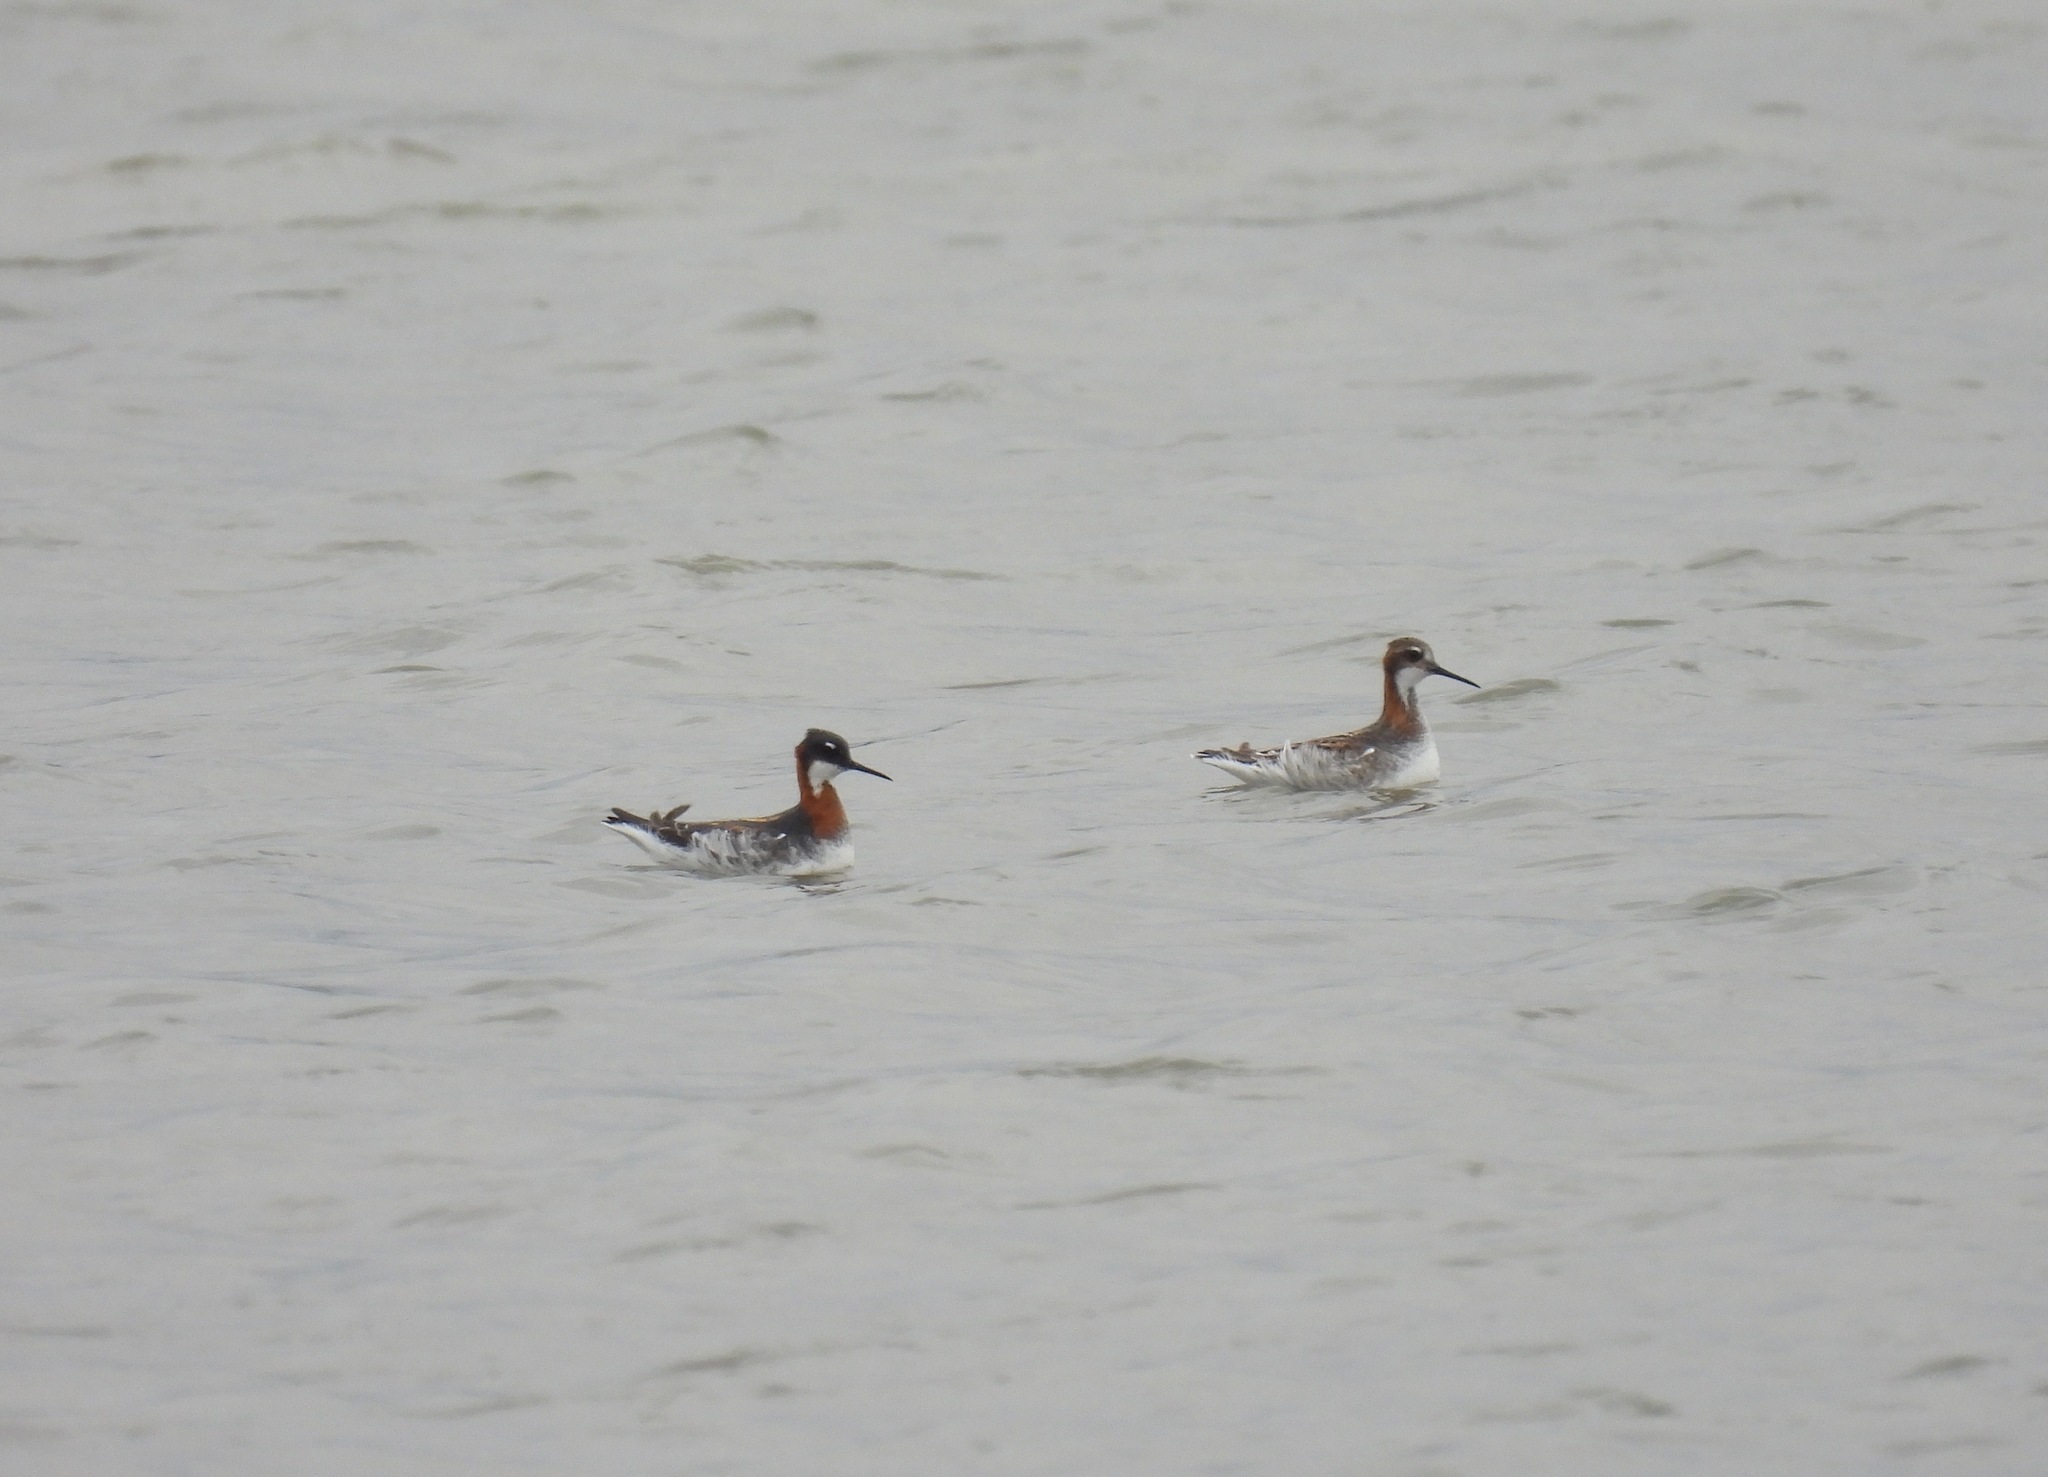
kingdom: Animalia
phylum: Chordata
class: Aves
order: Charadriiformes
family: Scolopacidae
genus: Phalaropus
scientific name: Phalaropus lobatus
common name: Red-necked phalarope
